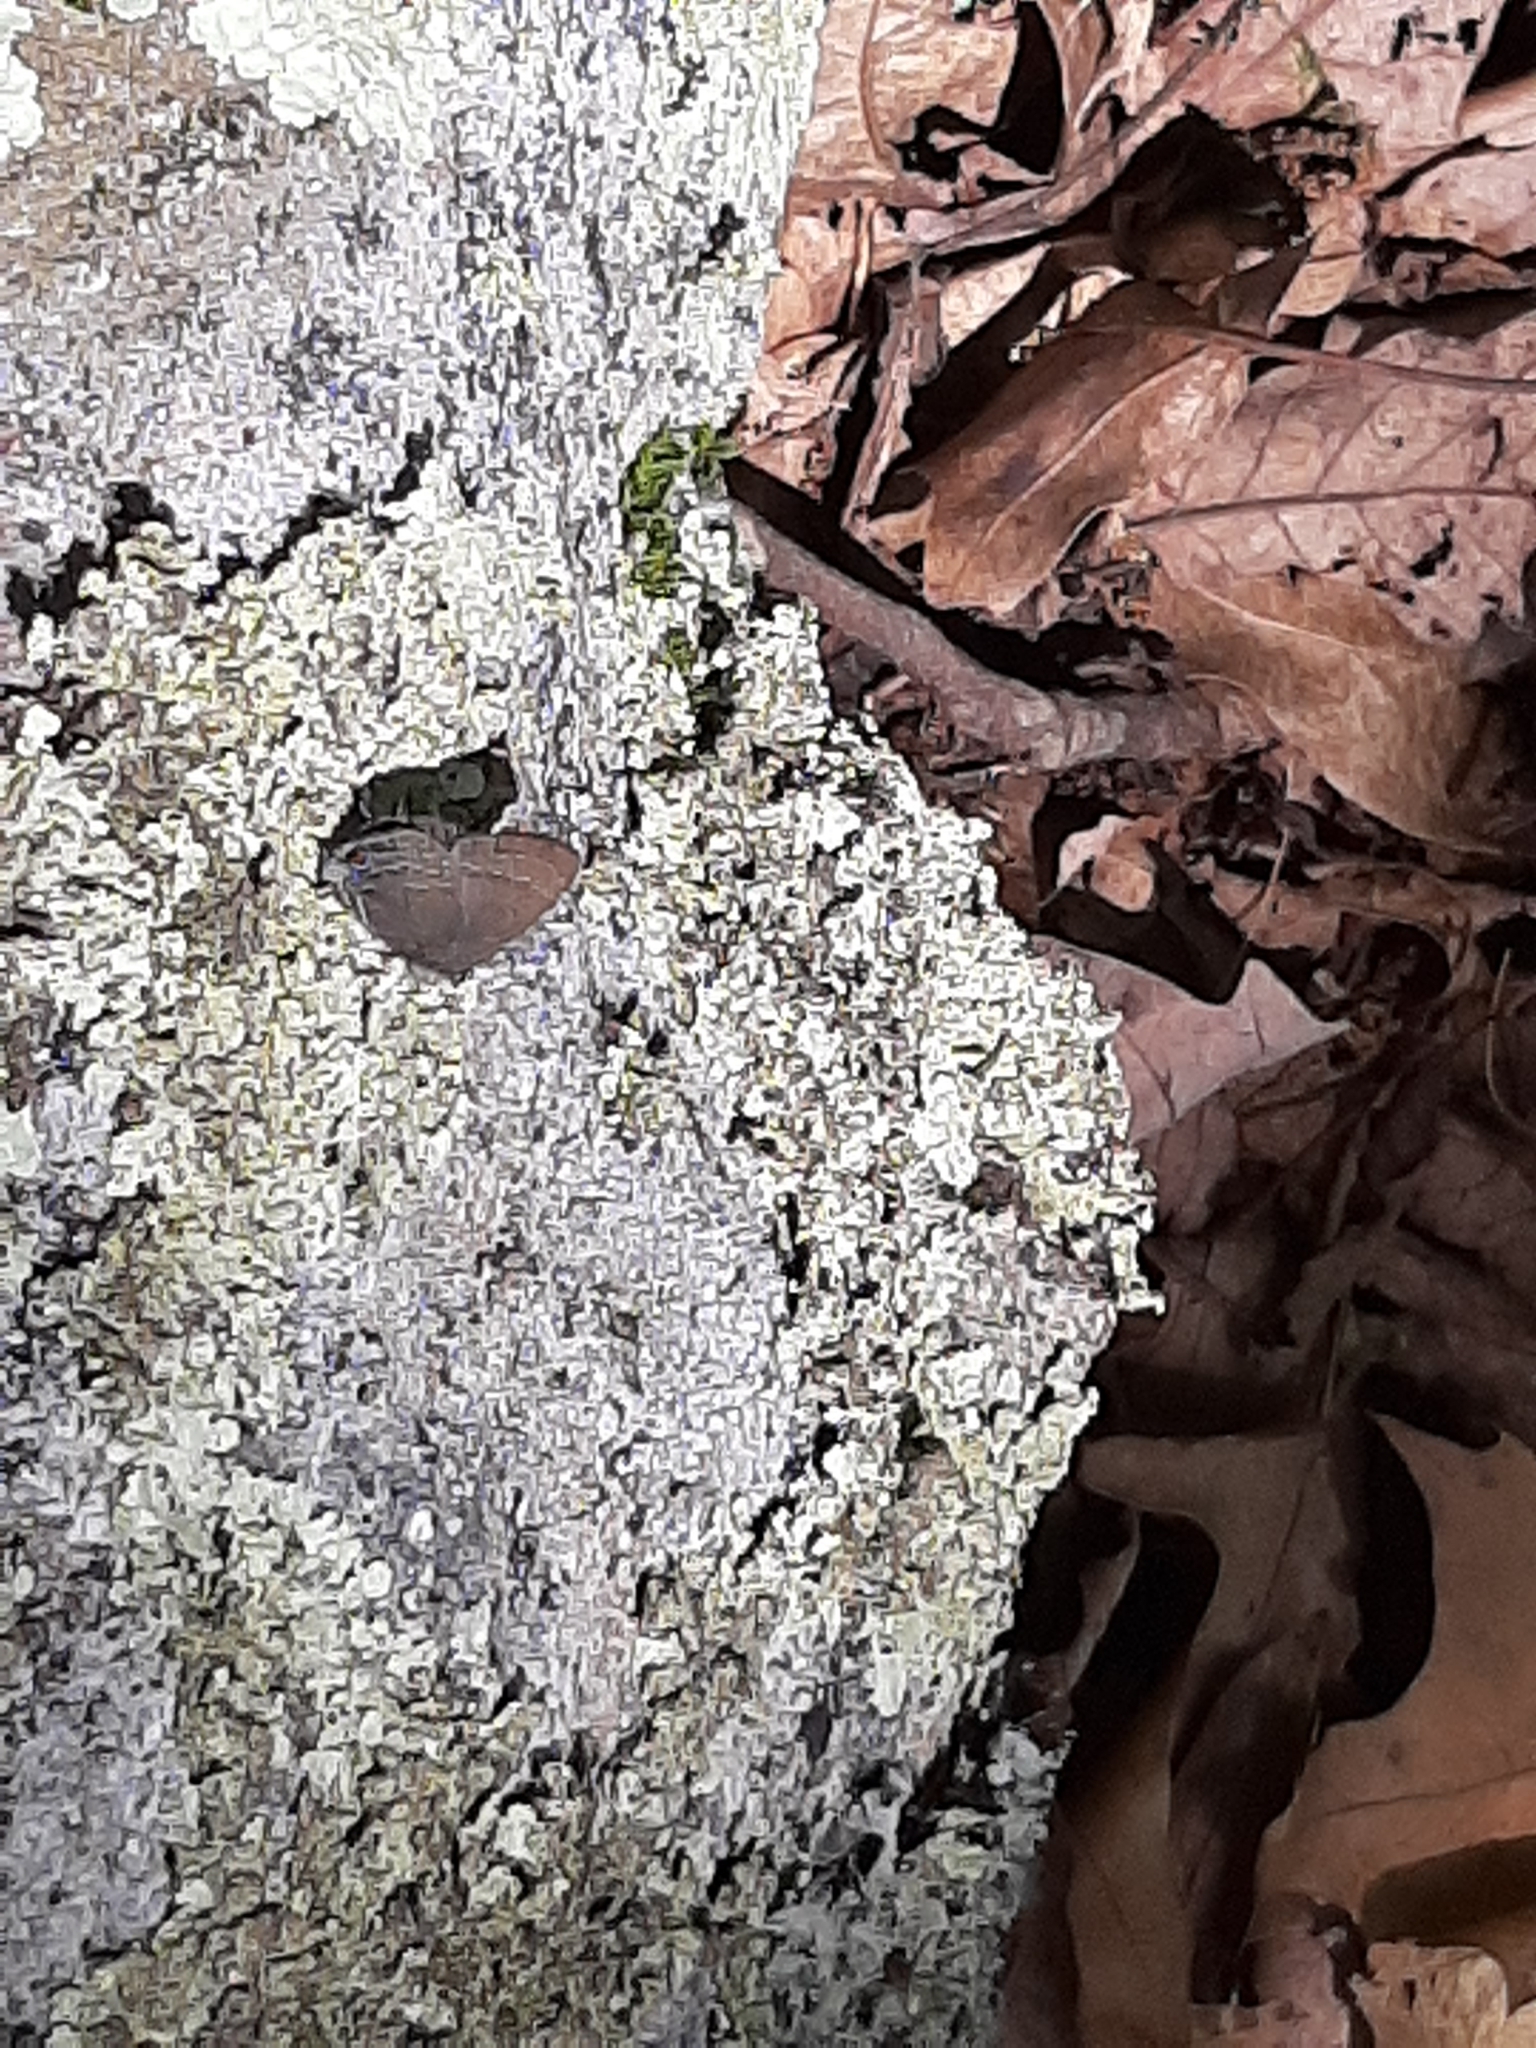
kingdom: Animalia
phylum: Arthropoda
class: Insecta
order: Lepidoptera
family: Lycaenidae
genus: Satyrium
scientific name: Satyrium calanus
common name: Banded hairstreak
